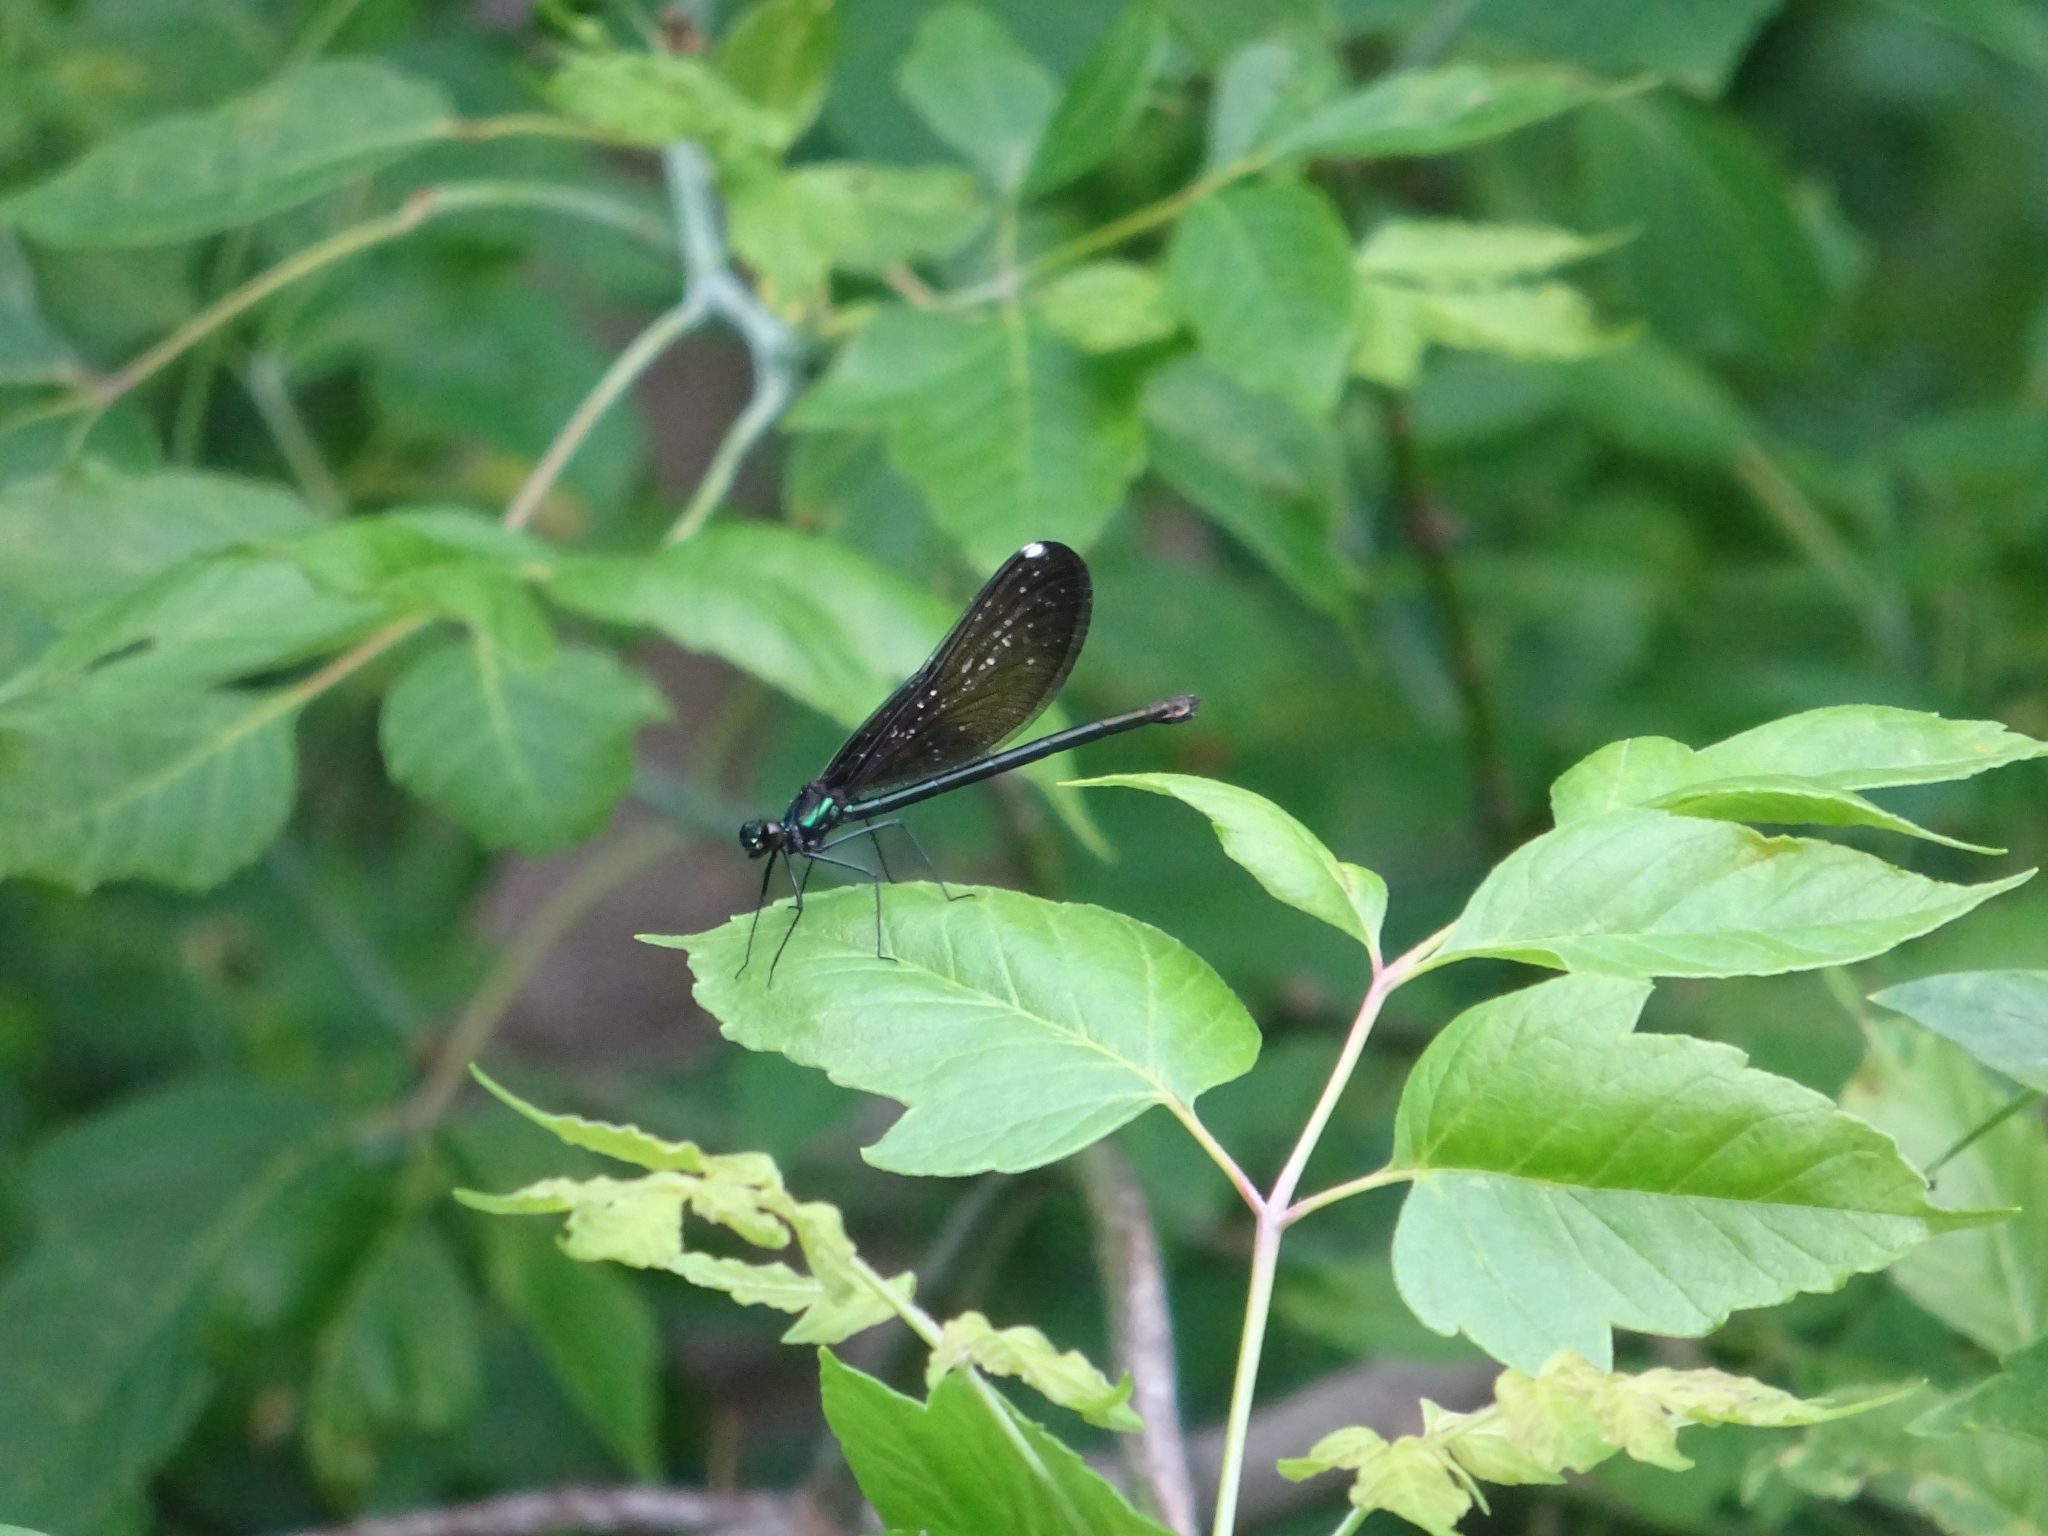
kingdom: Animalia
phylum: Arthropoda
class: Insecta
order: Odonata
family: Calopterygidae
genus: Calopteryx
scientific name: Calopteryx maculata
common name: Ebony jewelwing
